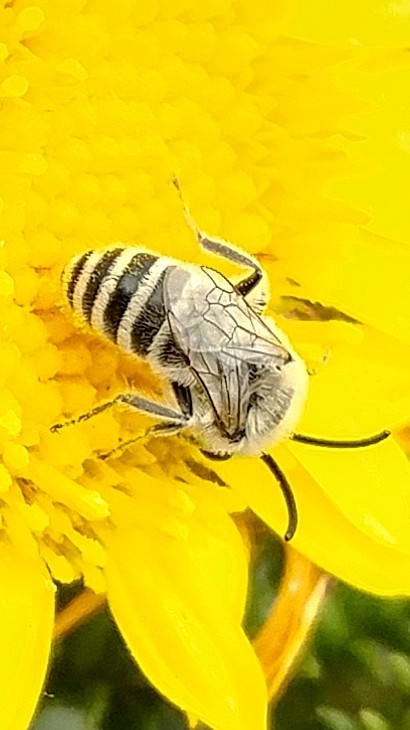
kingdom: Animalia
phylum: Arthropoda
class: Insecta
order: Hymenoptera
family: Colletidae
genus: Colletes
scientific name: Colletes hyalinus
